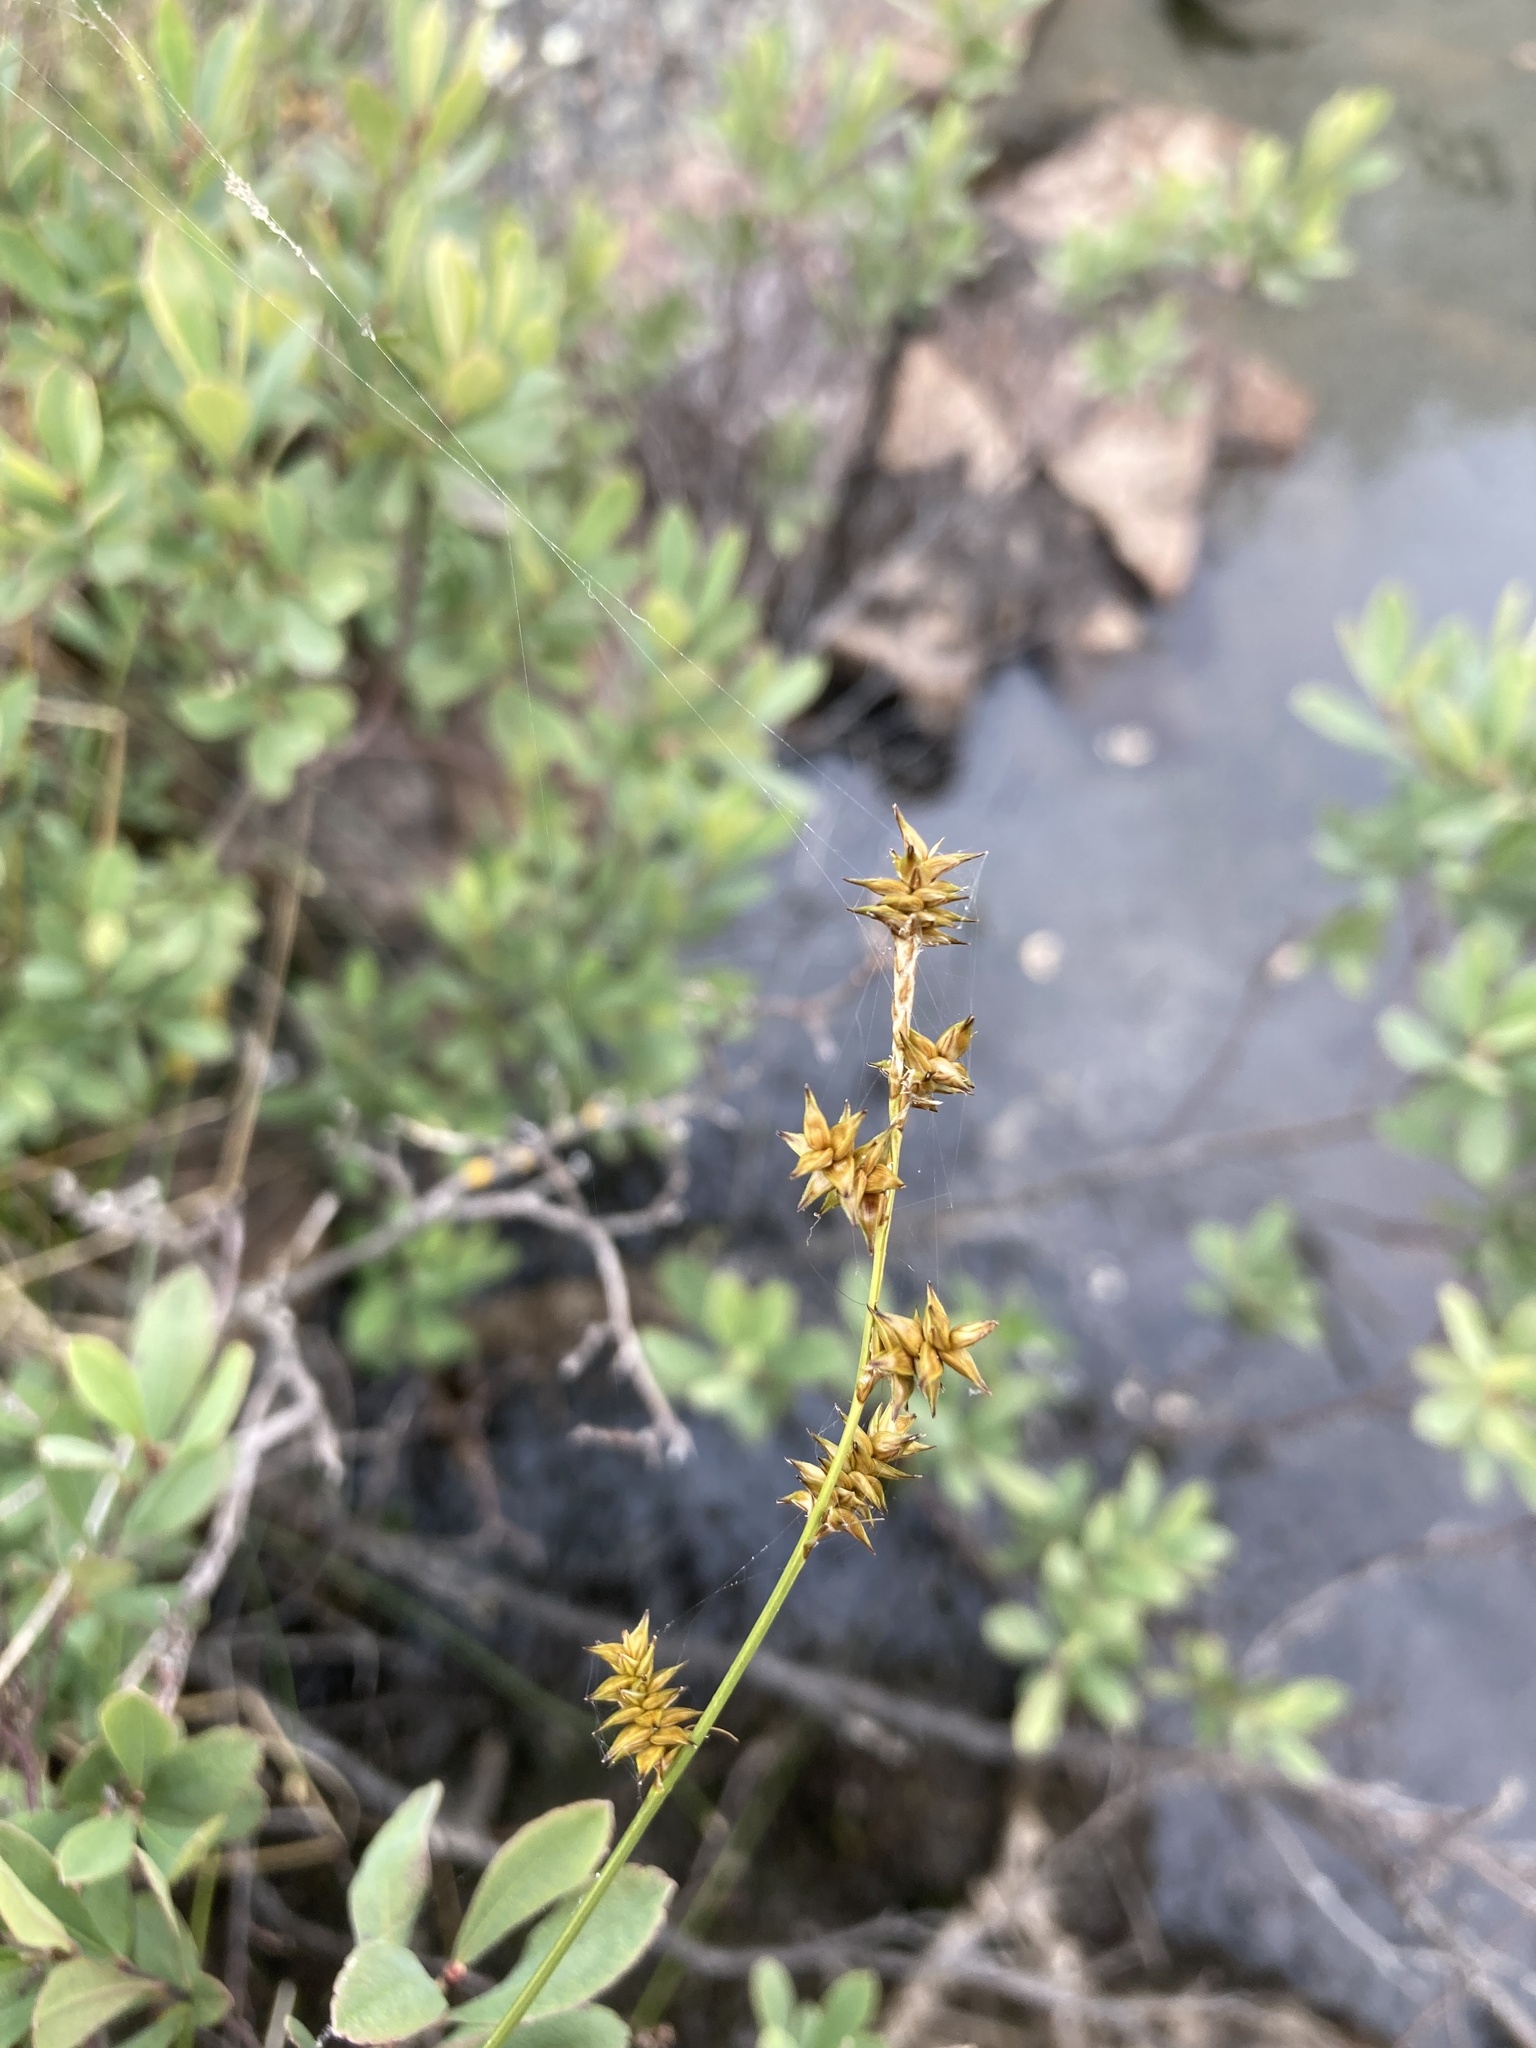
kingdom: Plantae
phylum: Tracheophyta
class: Liliopsida
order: Poales
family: Cyperaceae
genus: Carex
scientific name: Carex echinata
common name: Star sedge
